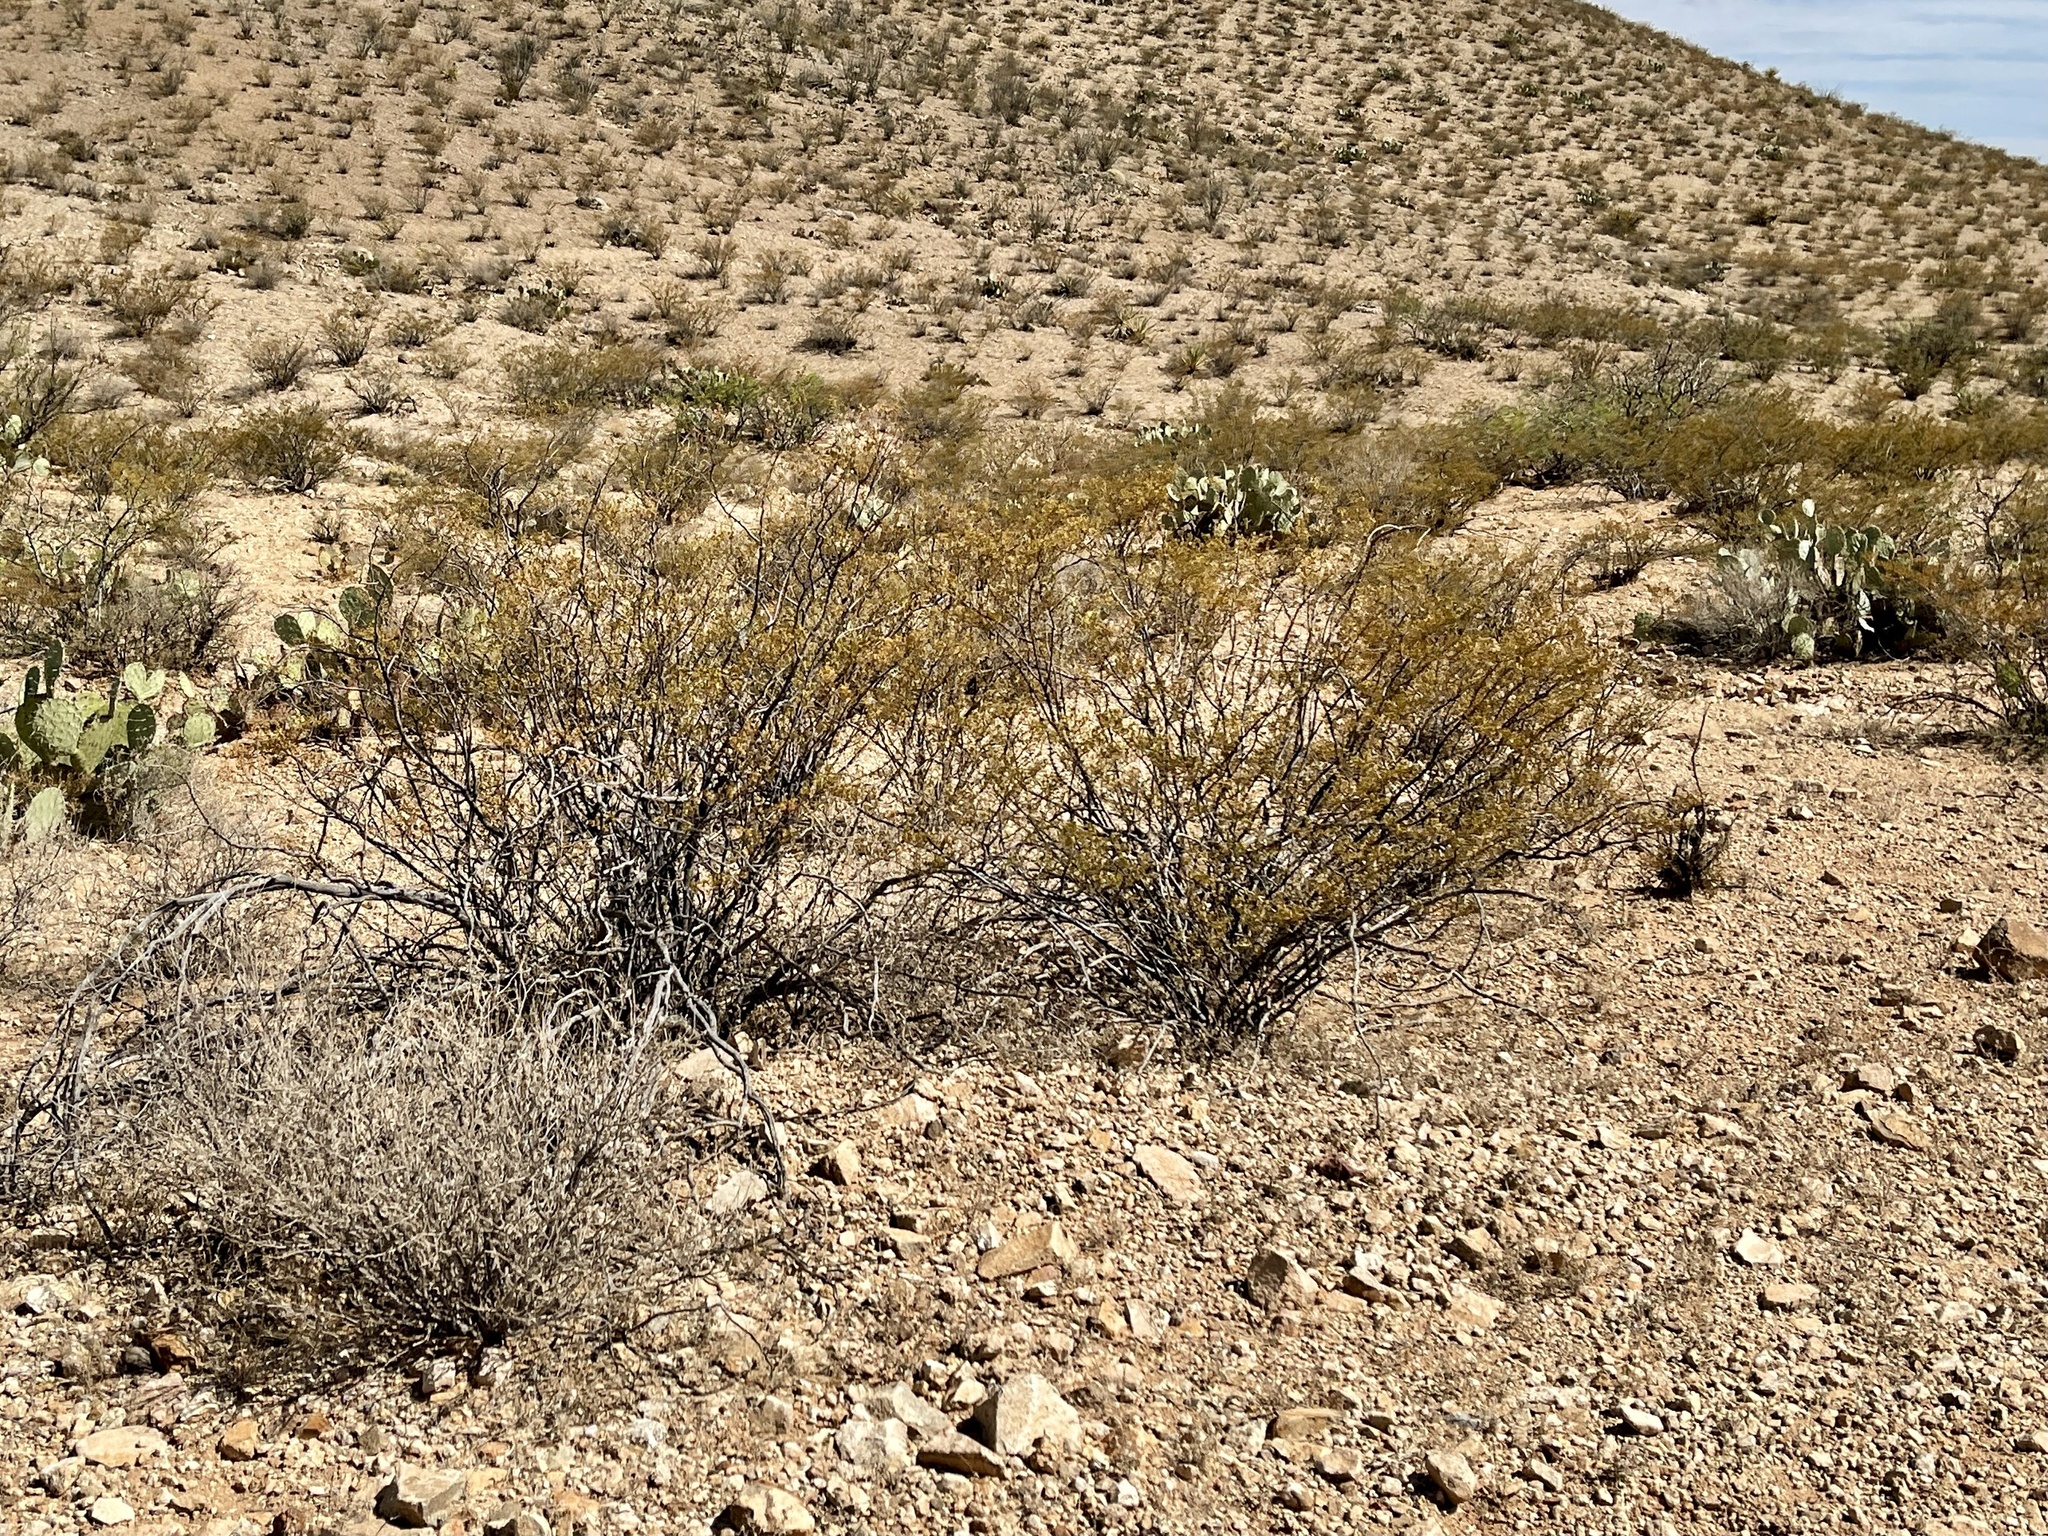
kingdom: Plantae
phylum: Tracheophyta
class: Magnoliopsida
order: Zygophyllales
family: Zygophyllaceae
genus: Larrea
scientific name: Larrea tridentata
